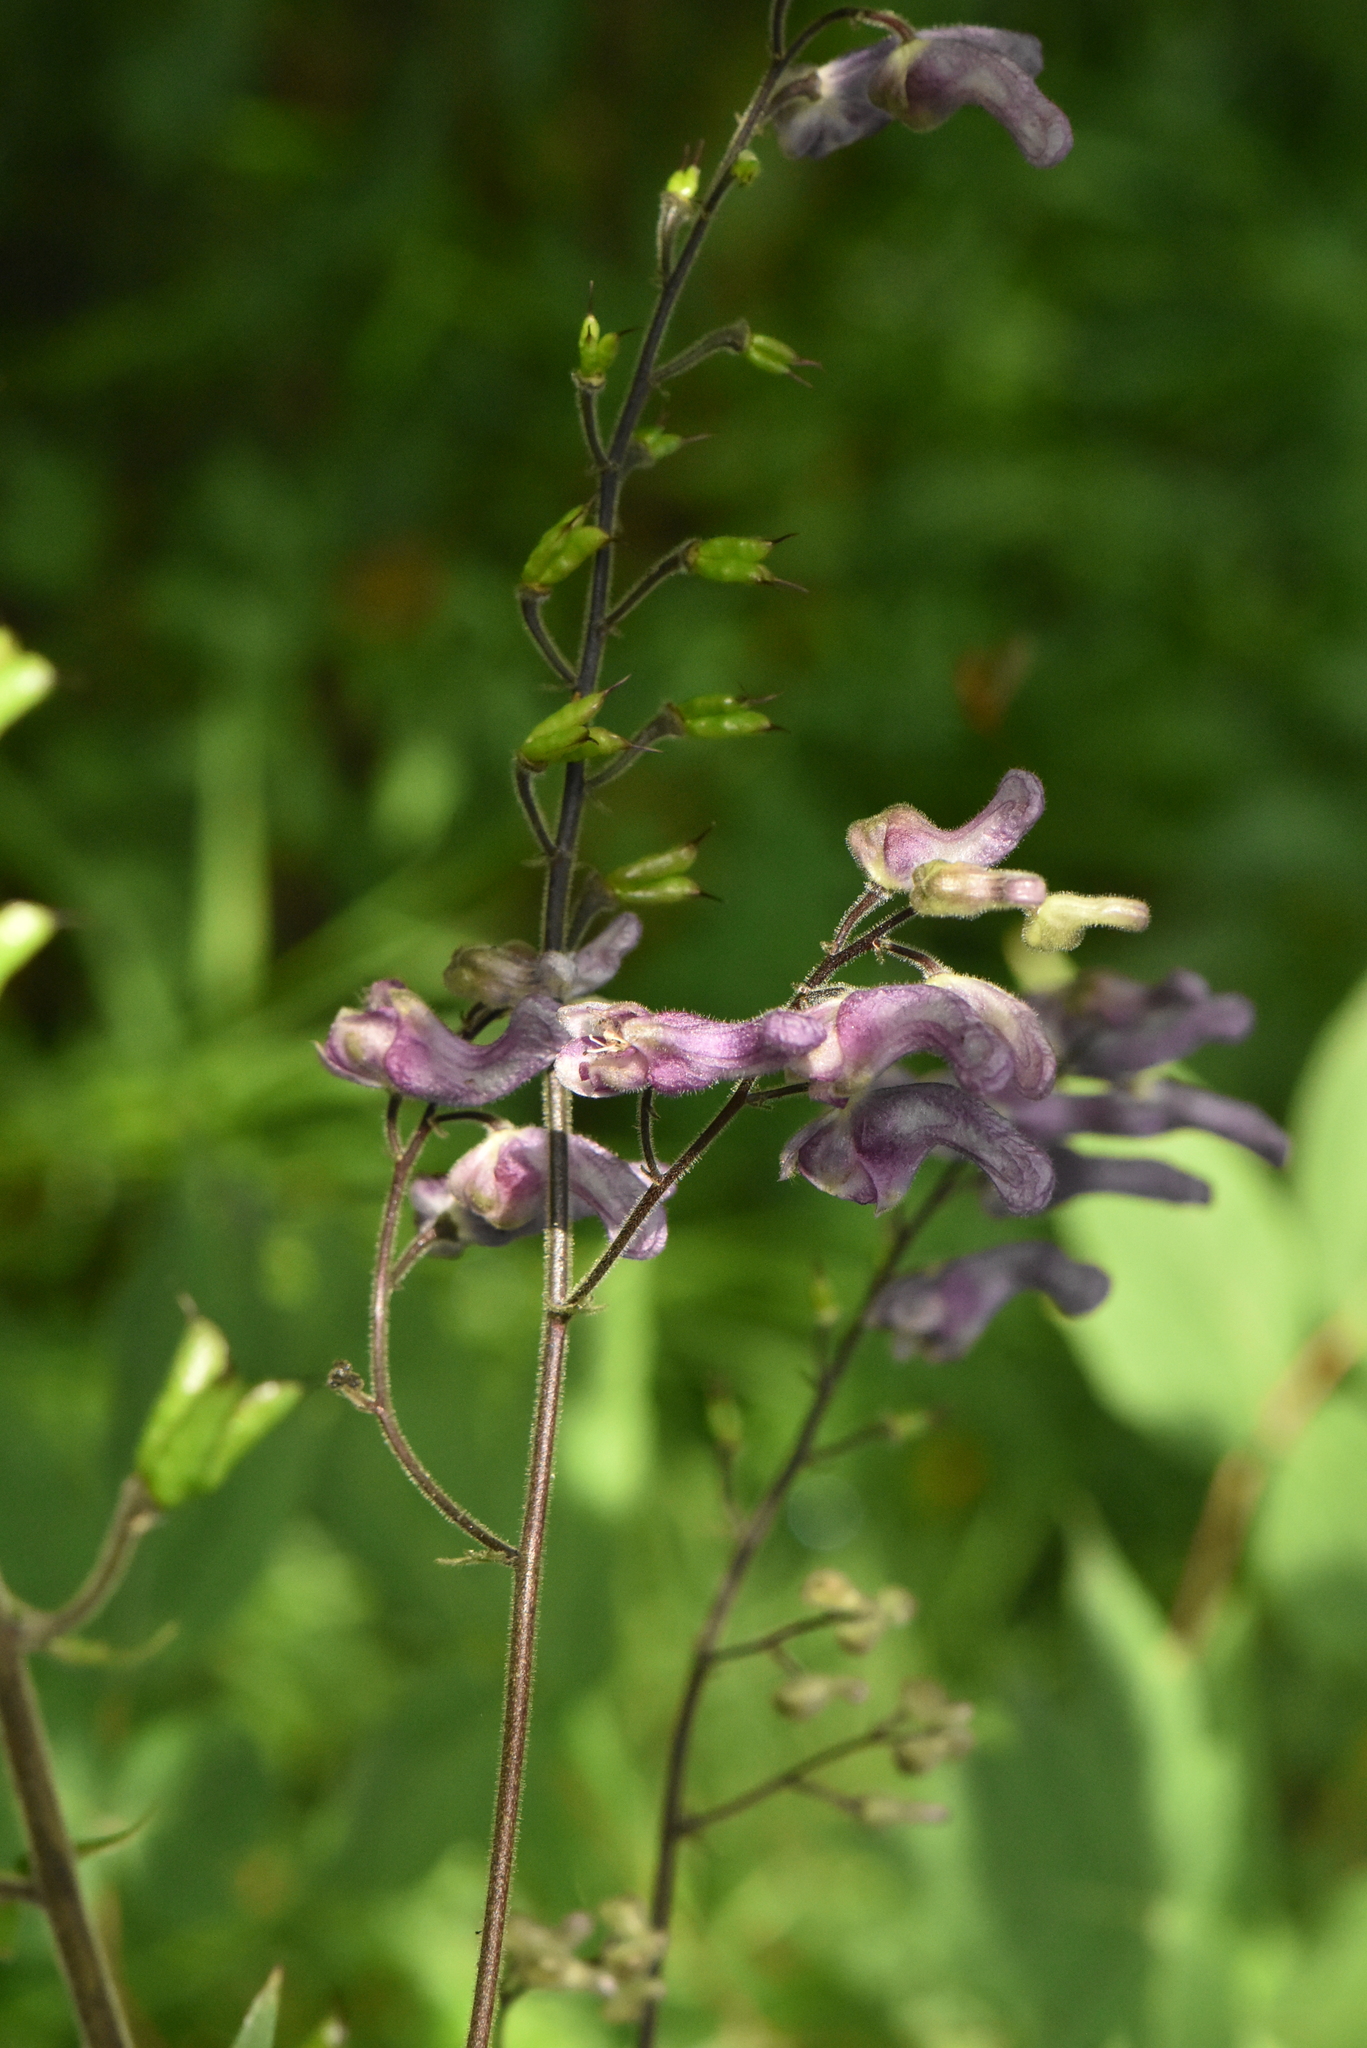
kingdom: Plantae
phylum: Tracheophyta
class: Magnoliopsida
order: Ranunculales
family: Ranunculaceae
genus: Aconitum
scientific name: Aconitum septentrionale
